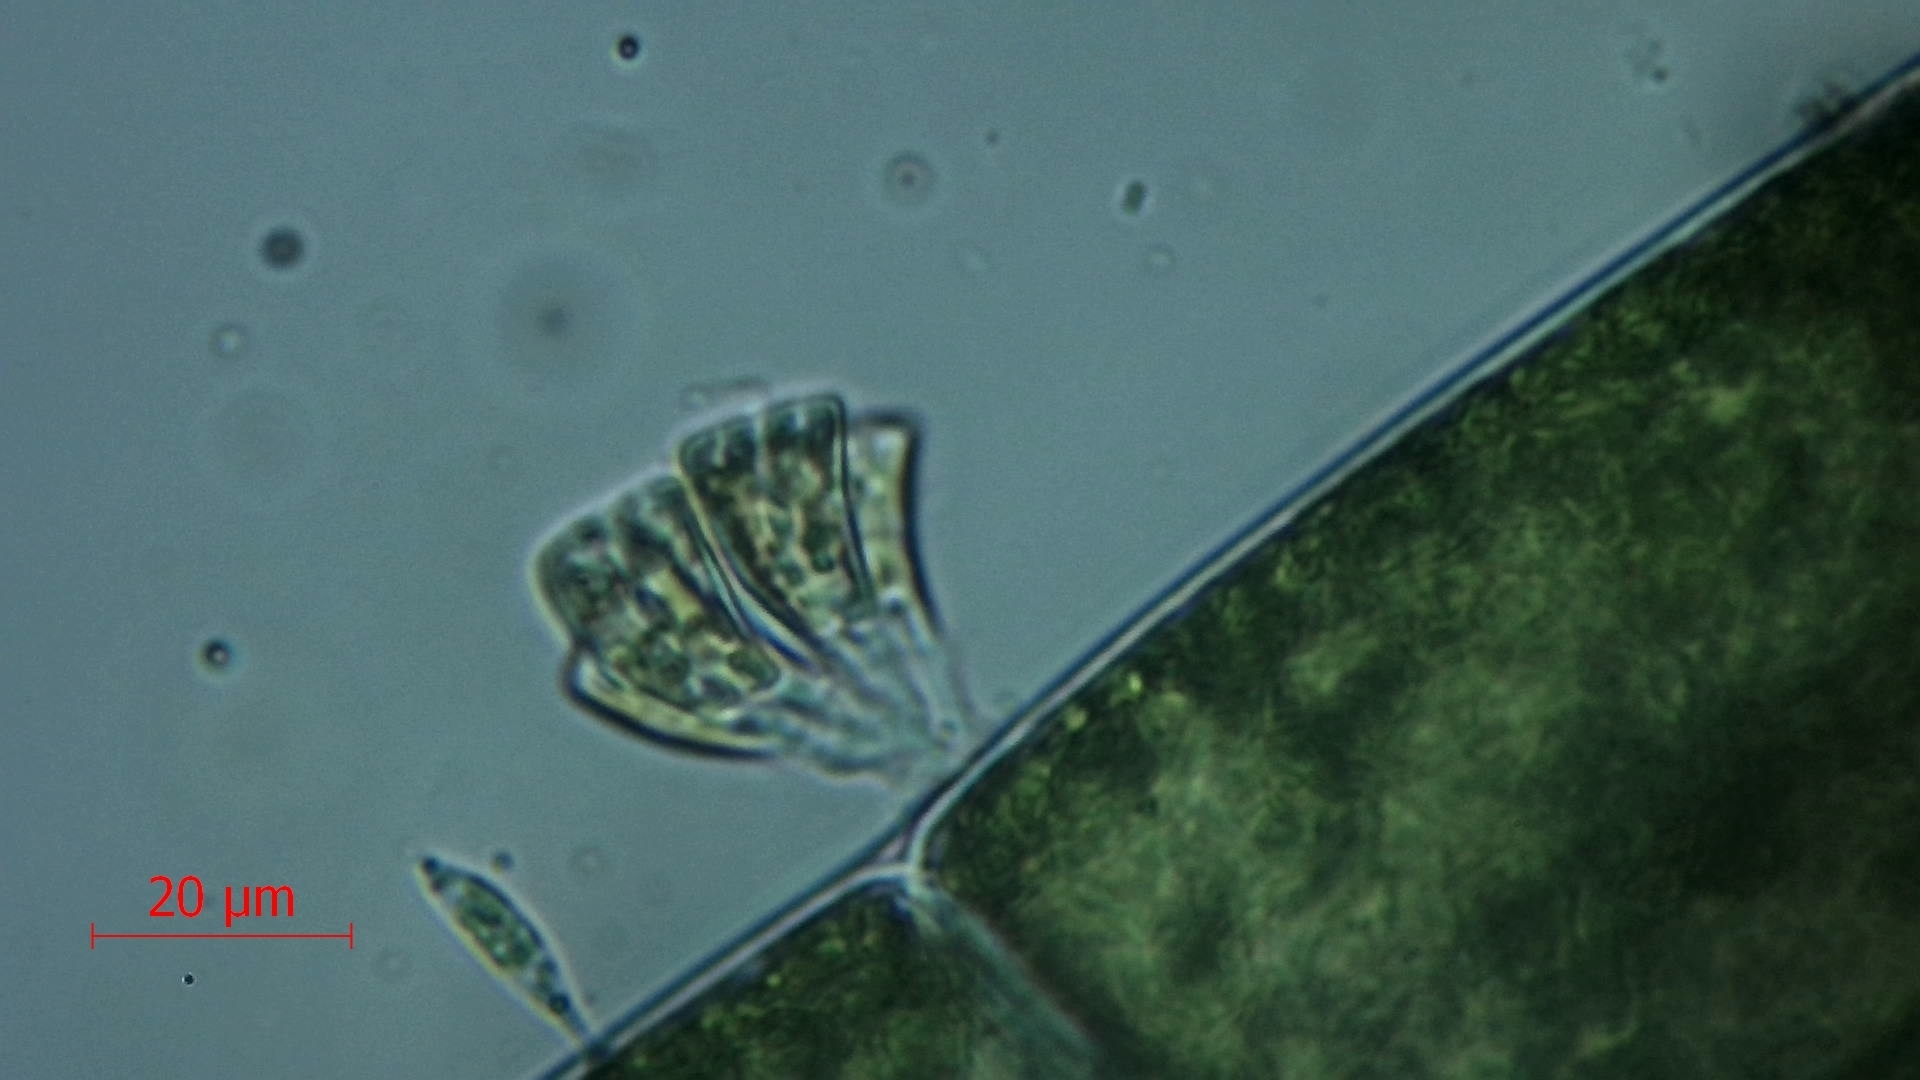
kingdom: Chromista
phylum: Ochrophyta
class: Bacillariophyceae
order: Cymbellales
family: Rhoicospheniaceae
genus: Rhoicosphenia
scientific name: Rhoicosphenia abbreviata
